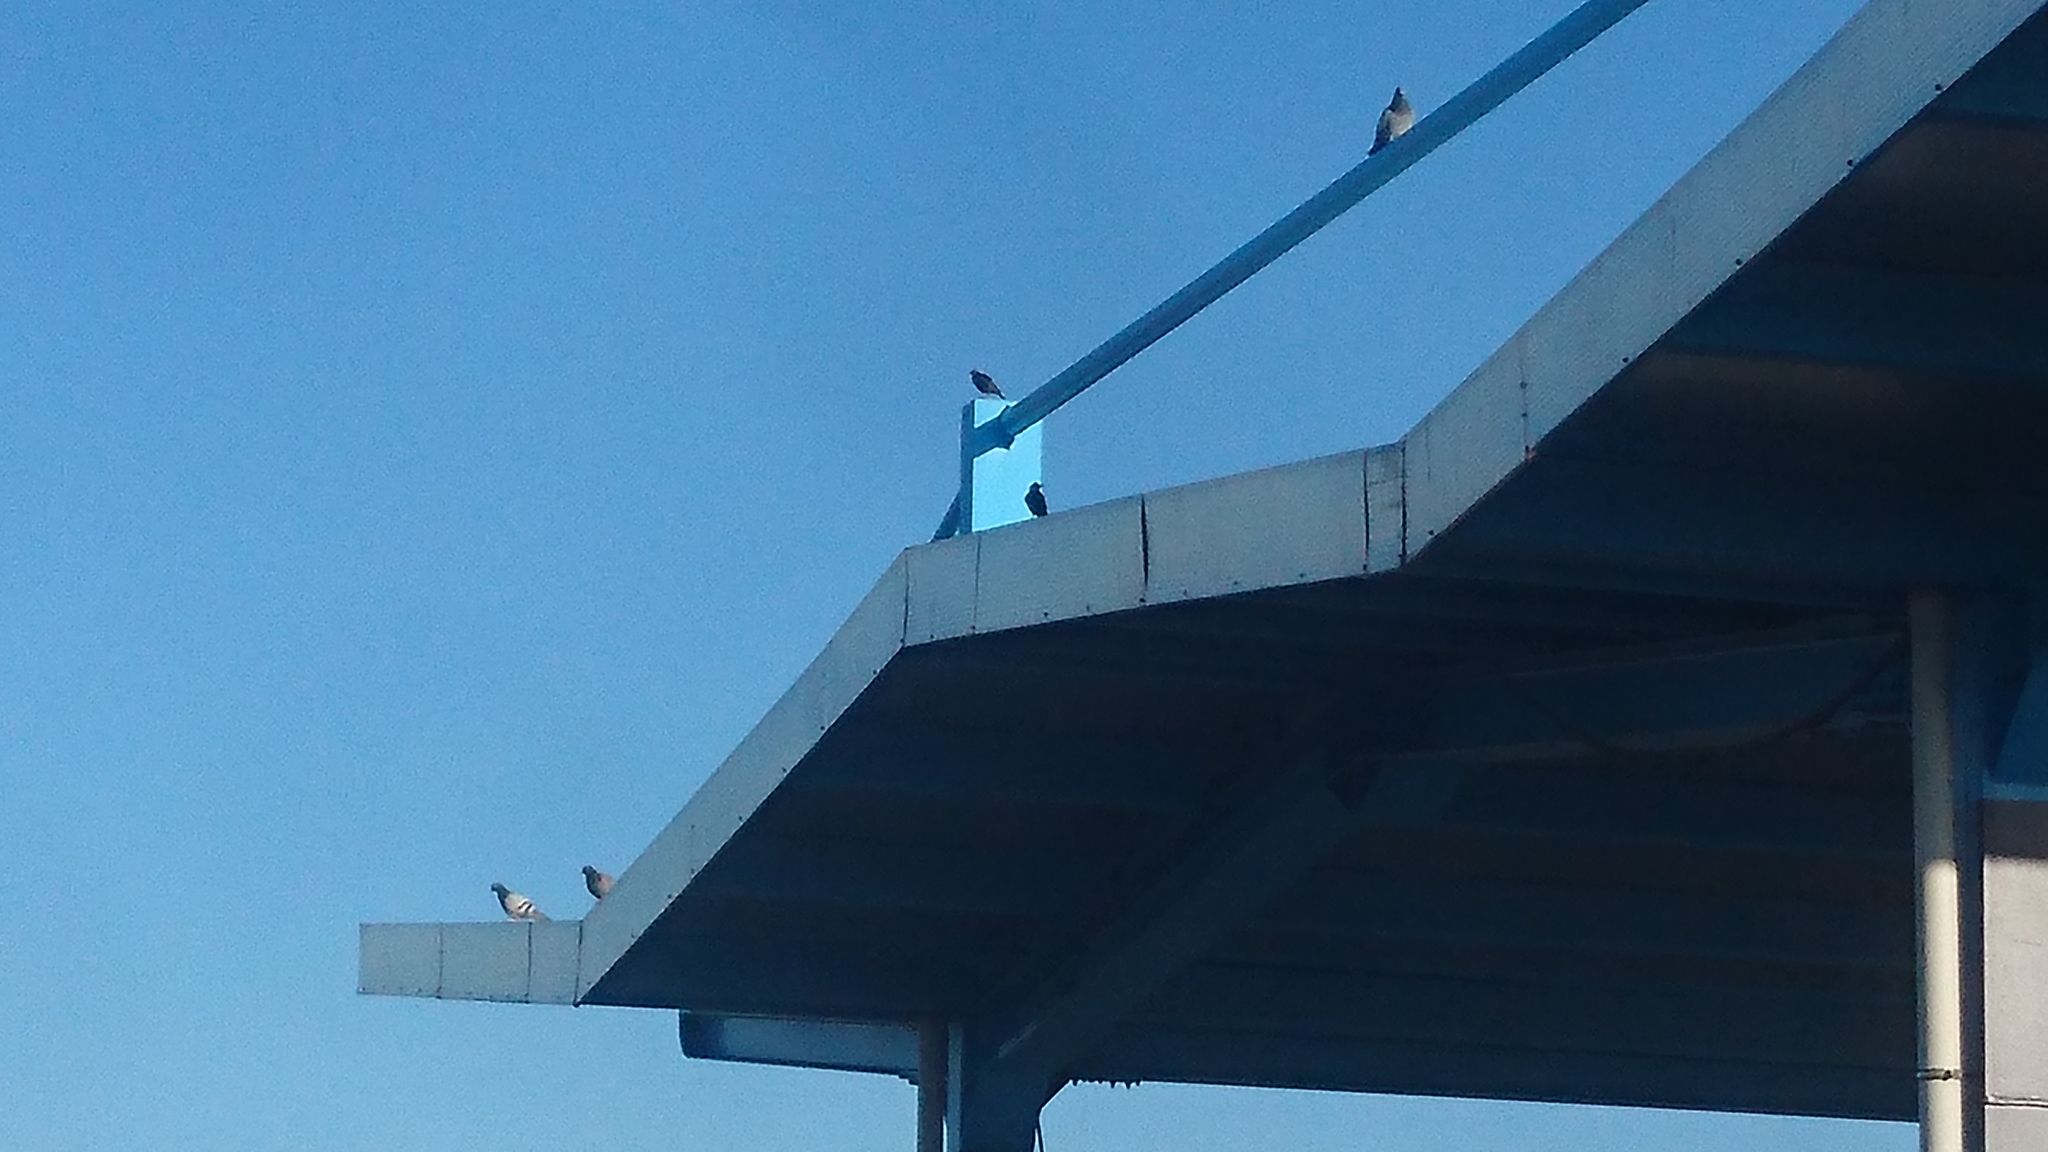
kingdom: Animalia
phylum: Chordata
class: Aves
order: Columbiformes
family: Columbidae
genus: Columba
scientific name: Columba livia
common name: Rock pigeon
